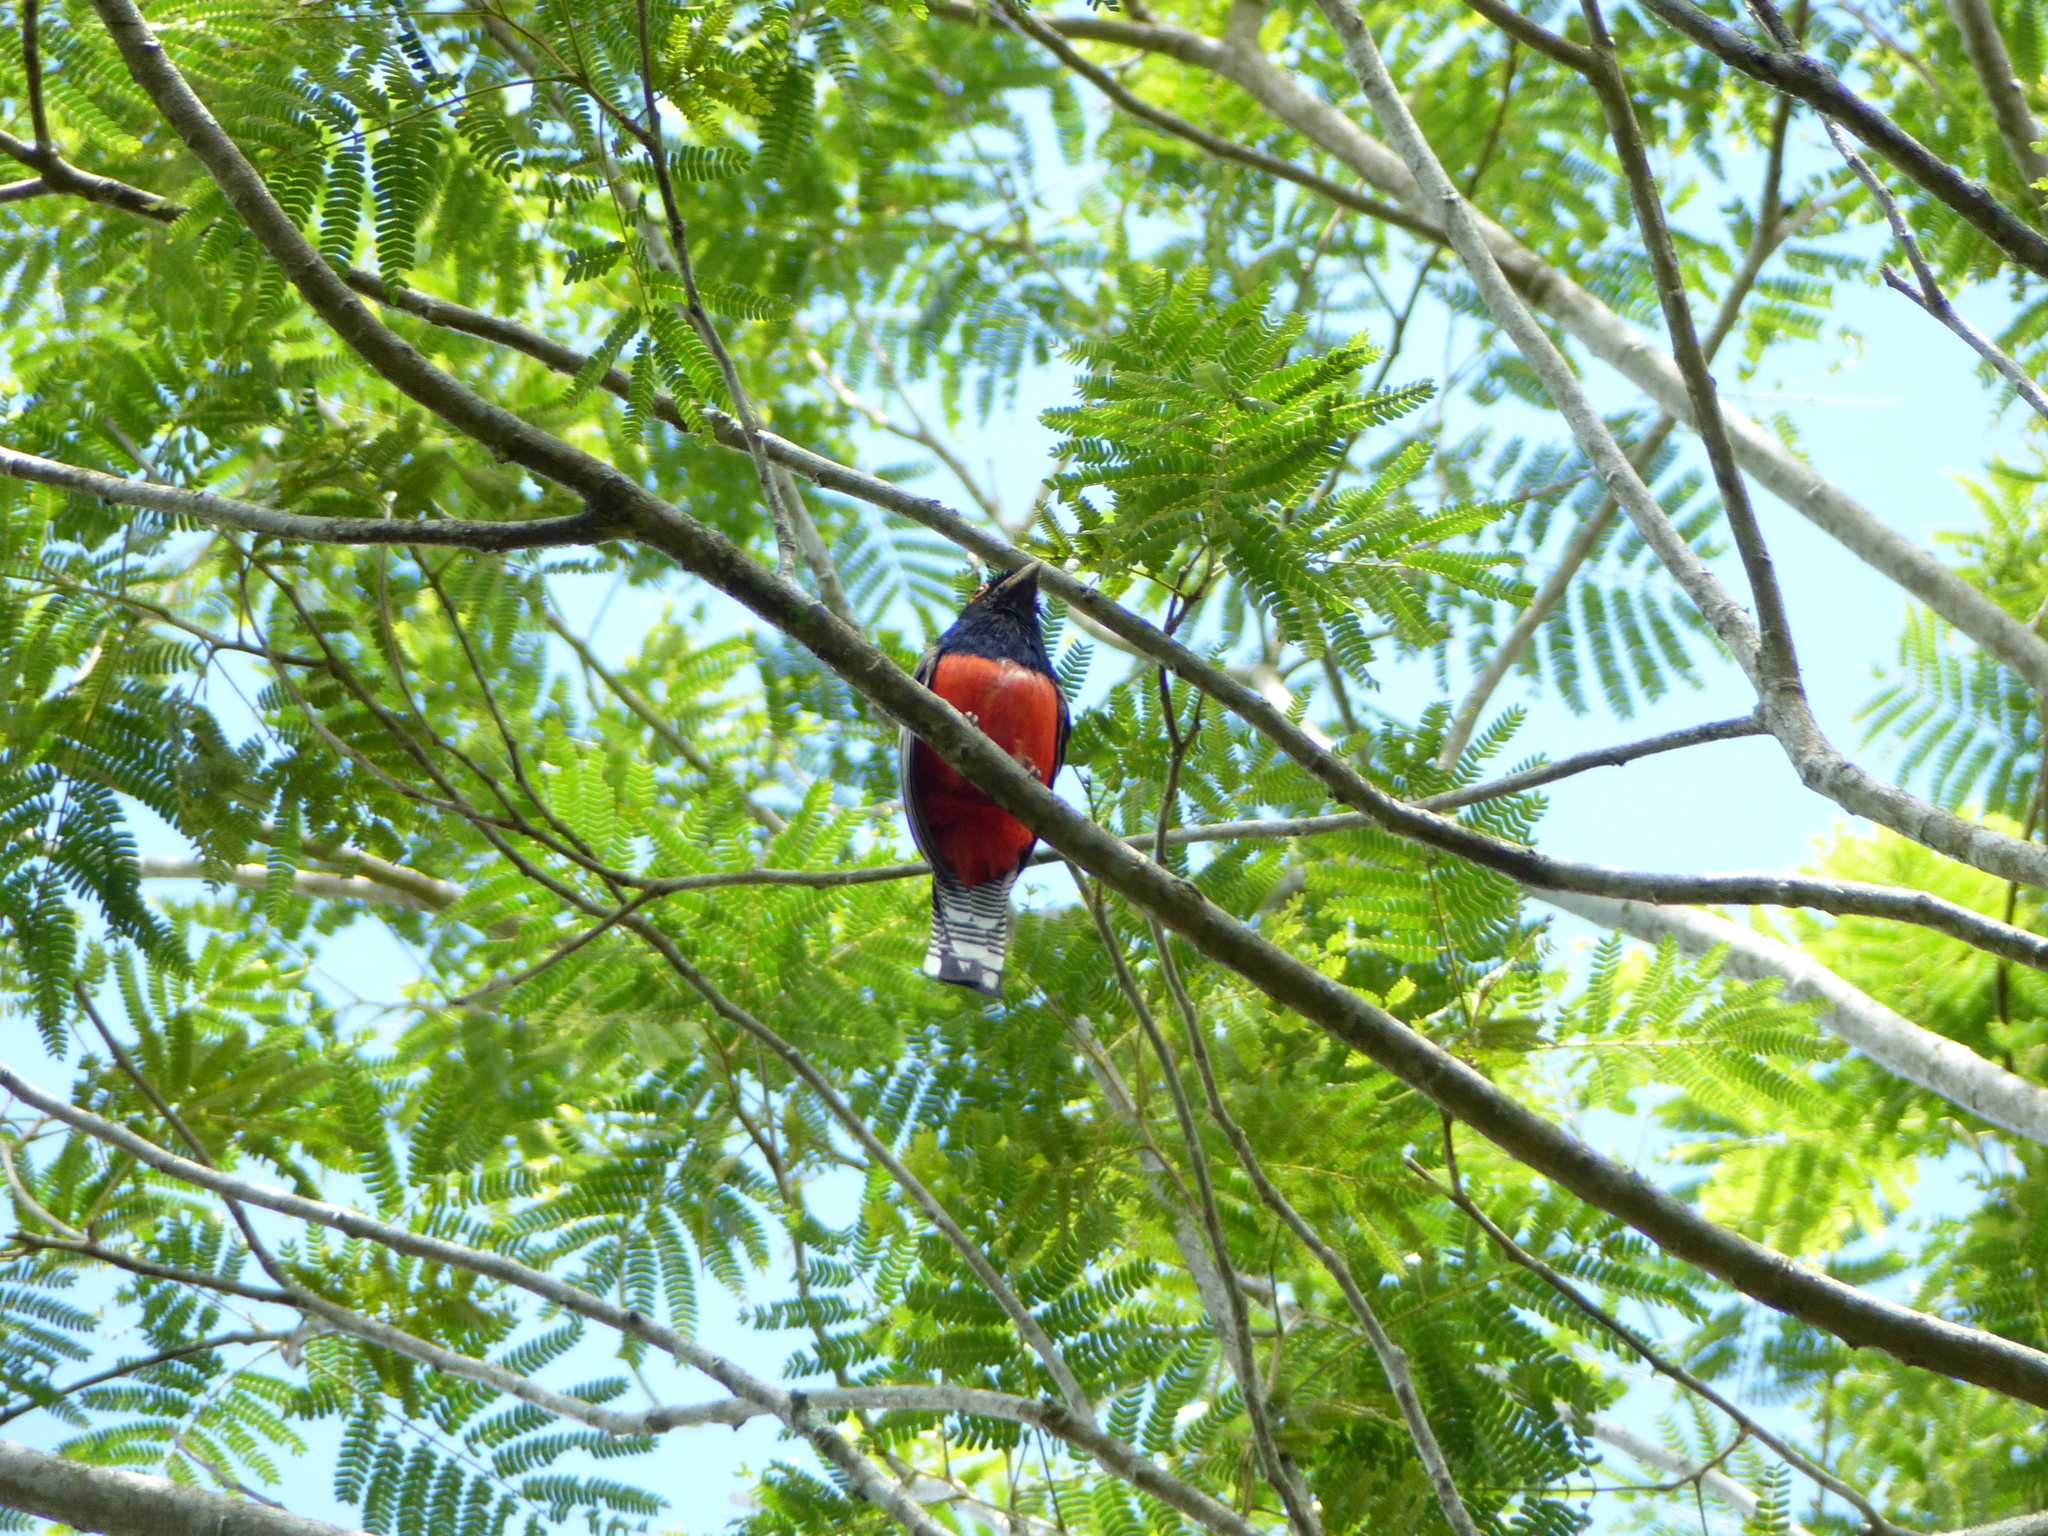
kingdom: Animalia
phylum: Chordata
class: Aves
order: Trogoniformes
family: Trogonidae
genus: Trogon
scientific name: Trogon curucui
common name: Blue-crowned trogon
